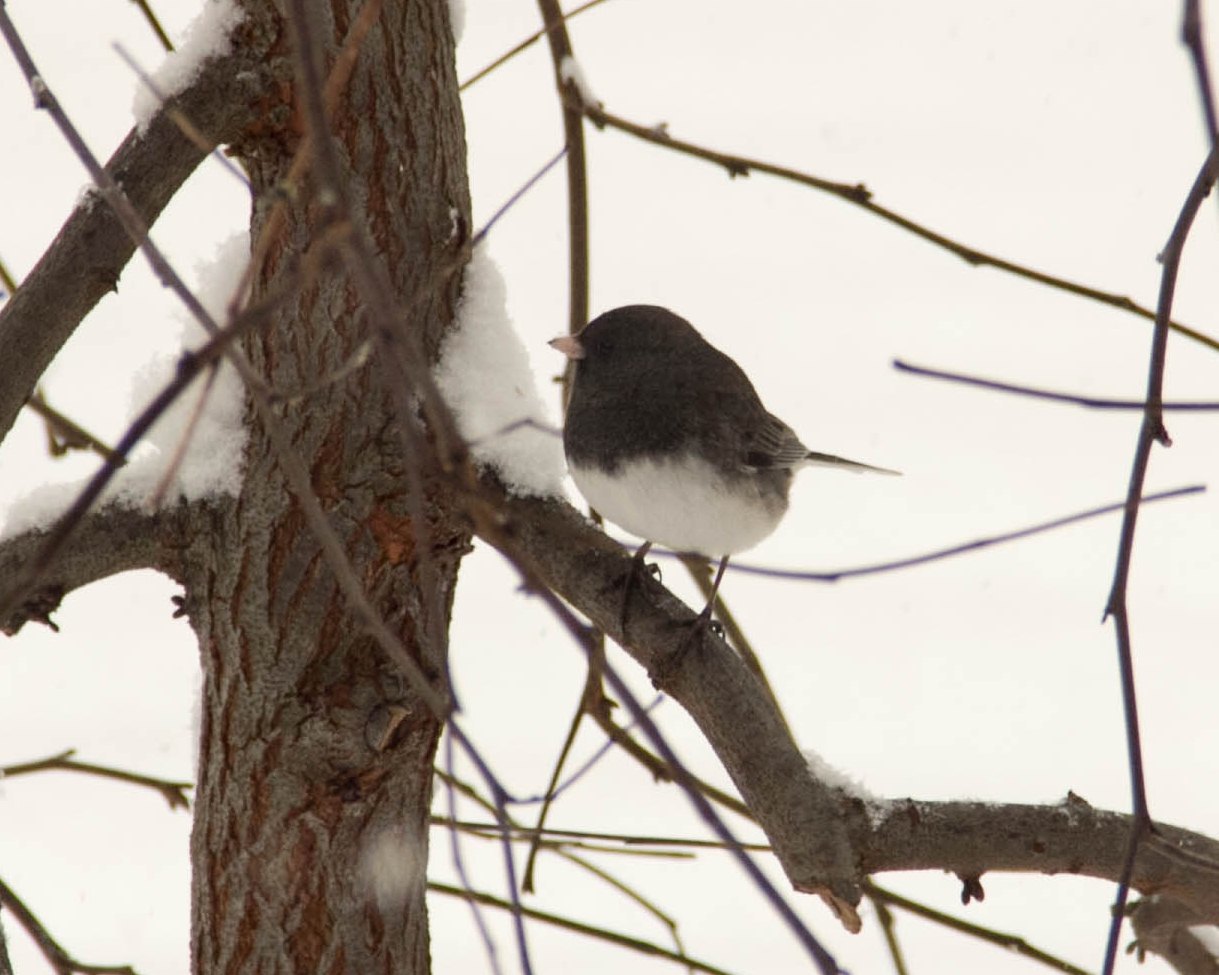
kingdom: Animalia
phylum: Chordata
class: Aves
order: Passeriformes
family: Passerellidae
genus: Junco
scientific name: Junco hyemalis
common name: Dark-eyed junco
